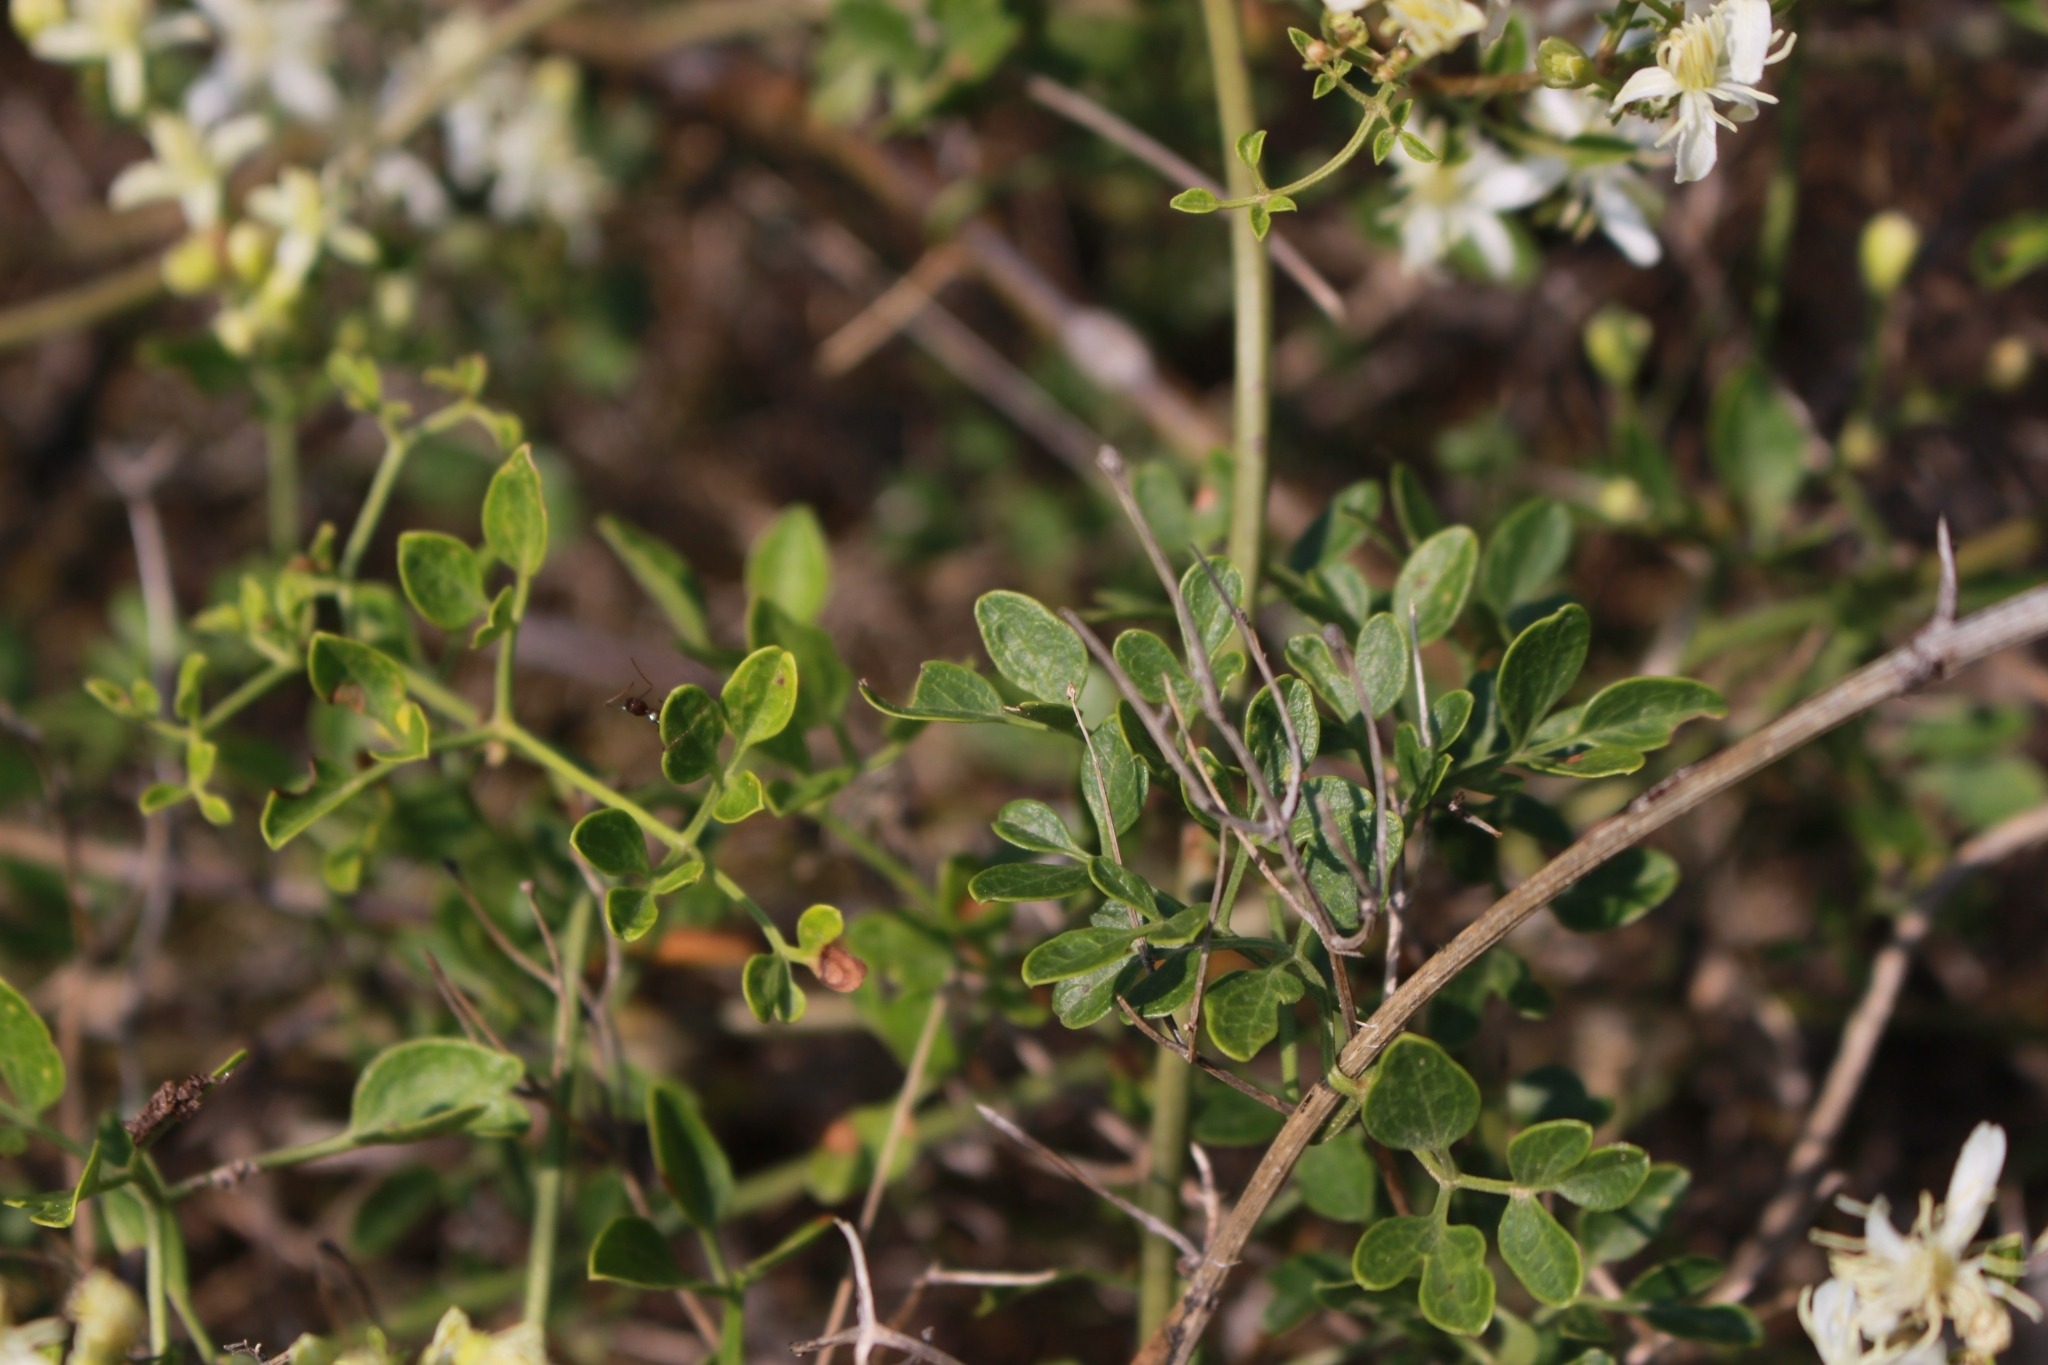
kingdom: Plantae
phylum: Tracheophyta
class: Magnoliopsida
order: Ranunculales
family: Ranunculaceae
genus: Clematis
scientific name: Clematis flammula
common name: Virgin's-bower
